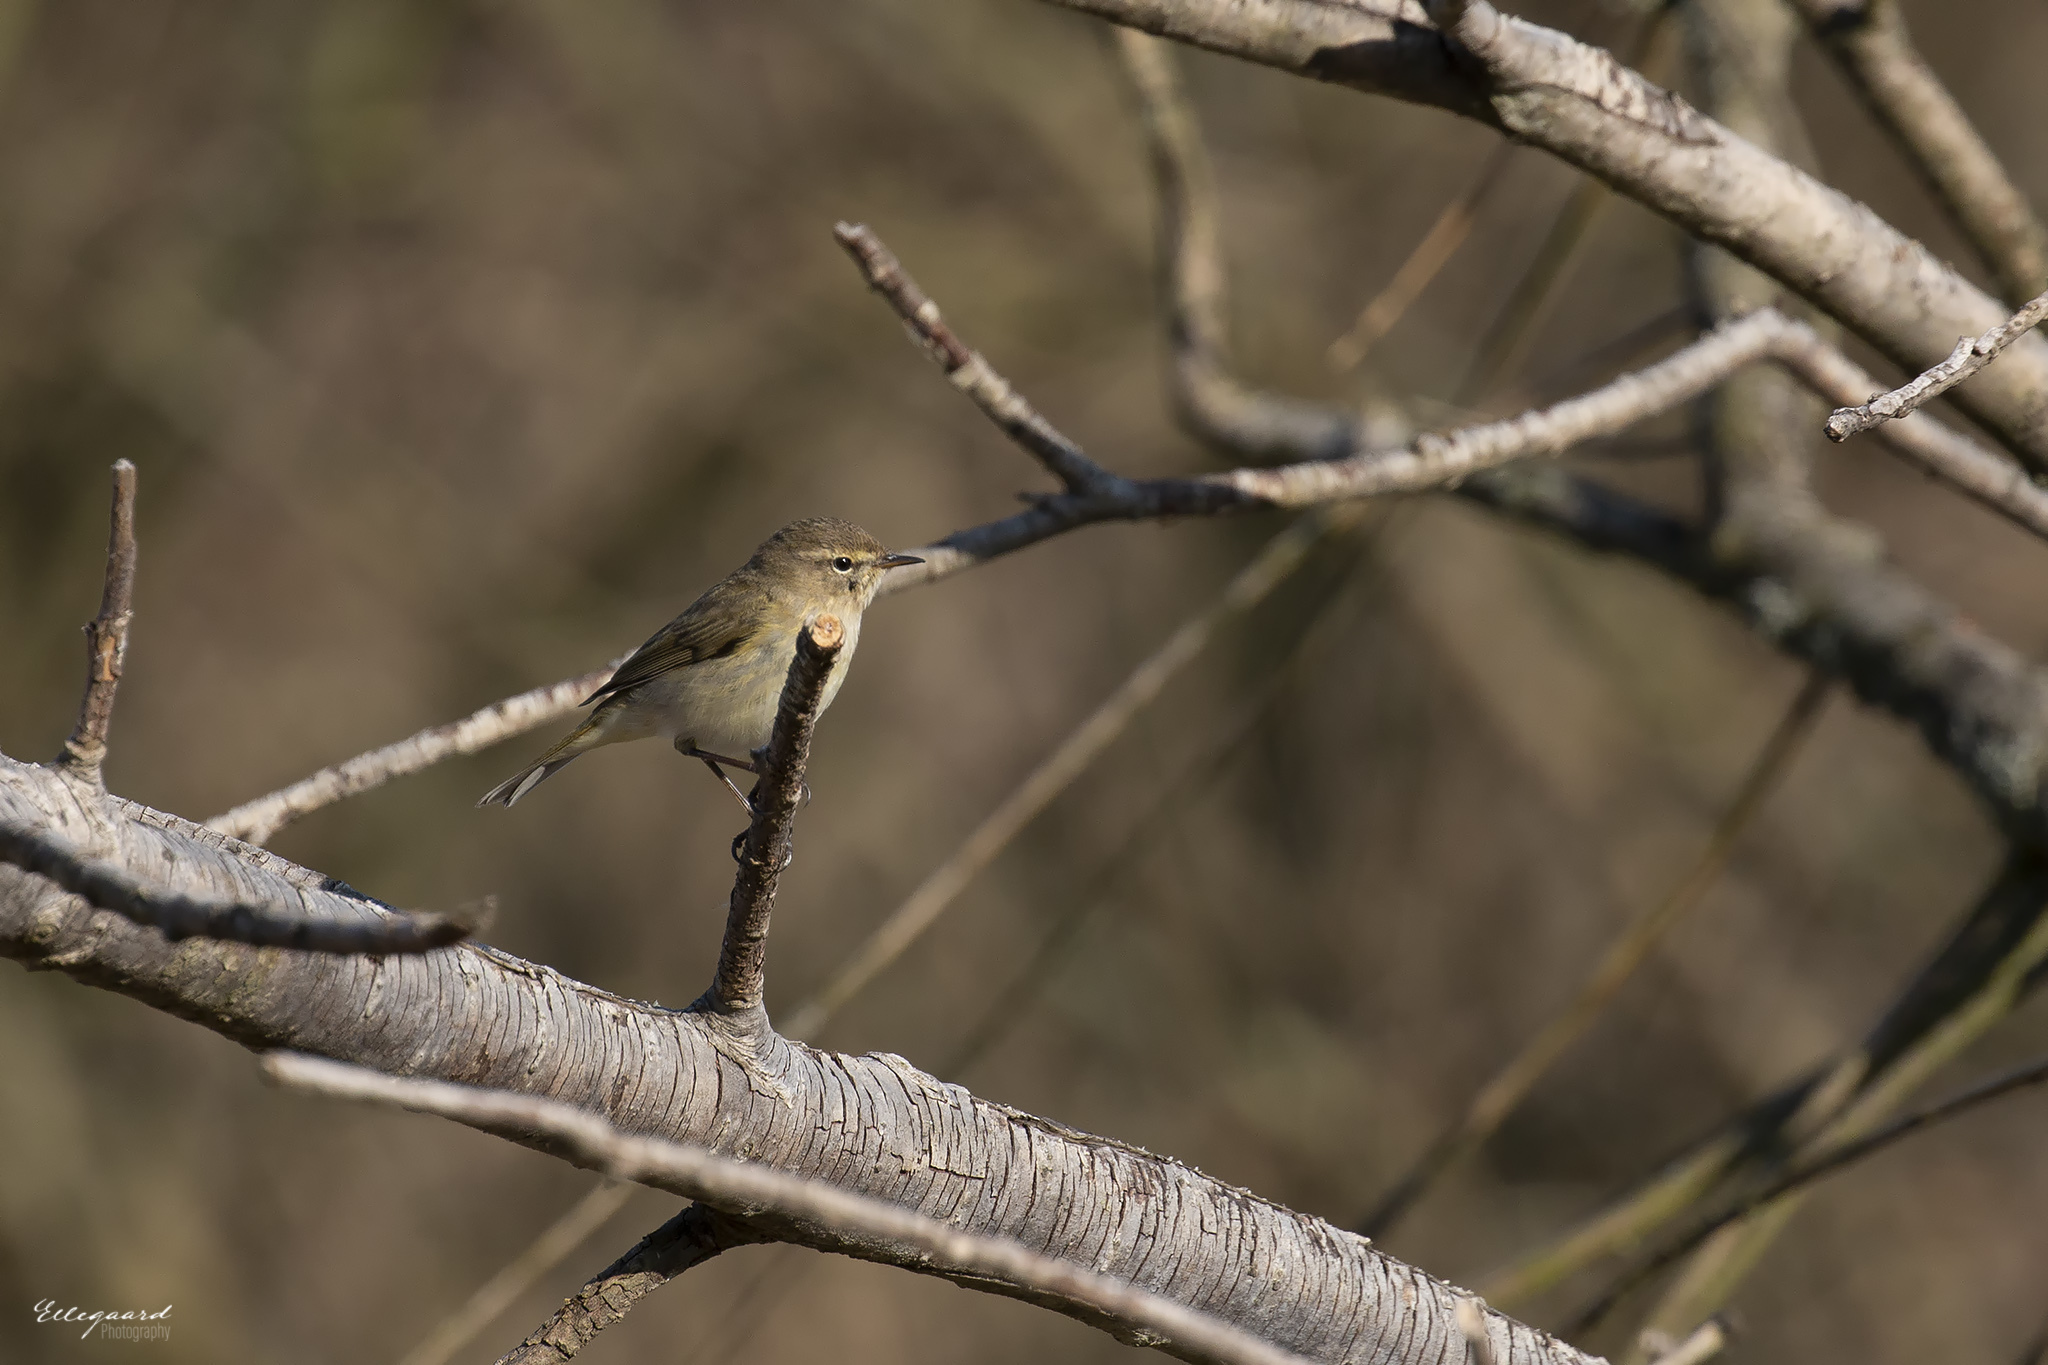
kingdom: Animalia
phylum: Chordata
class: Aves
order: Passeriformes
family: Phylloscopidae
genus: Phylloscopus
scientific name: Phylloscopus collybita
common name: Common chiffchaff
